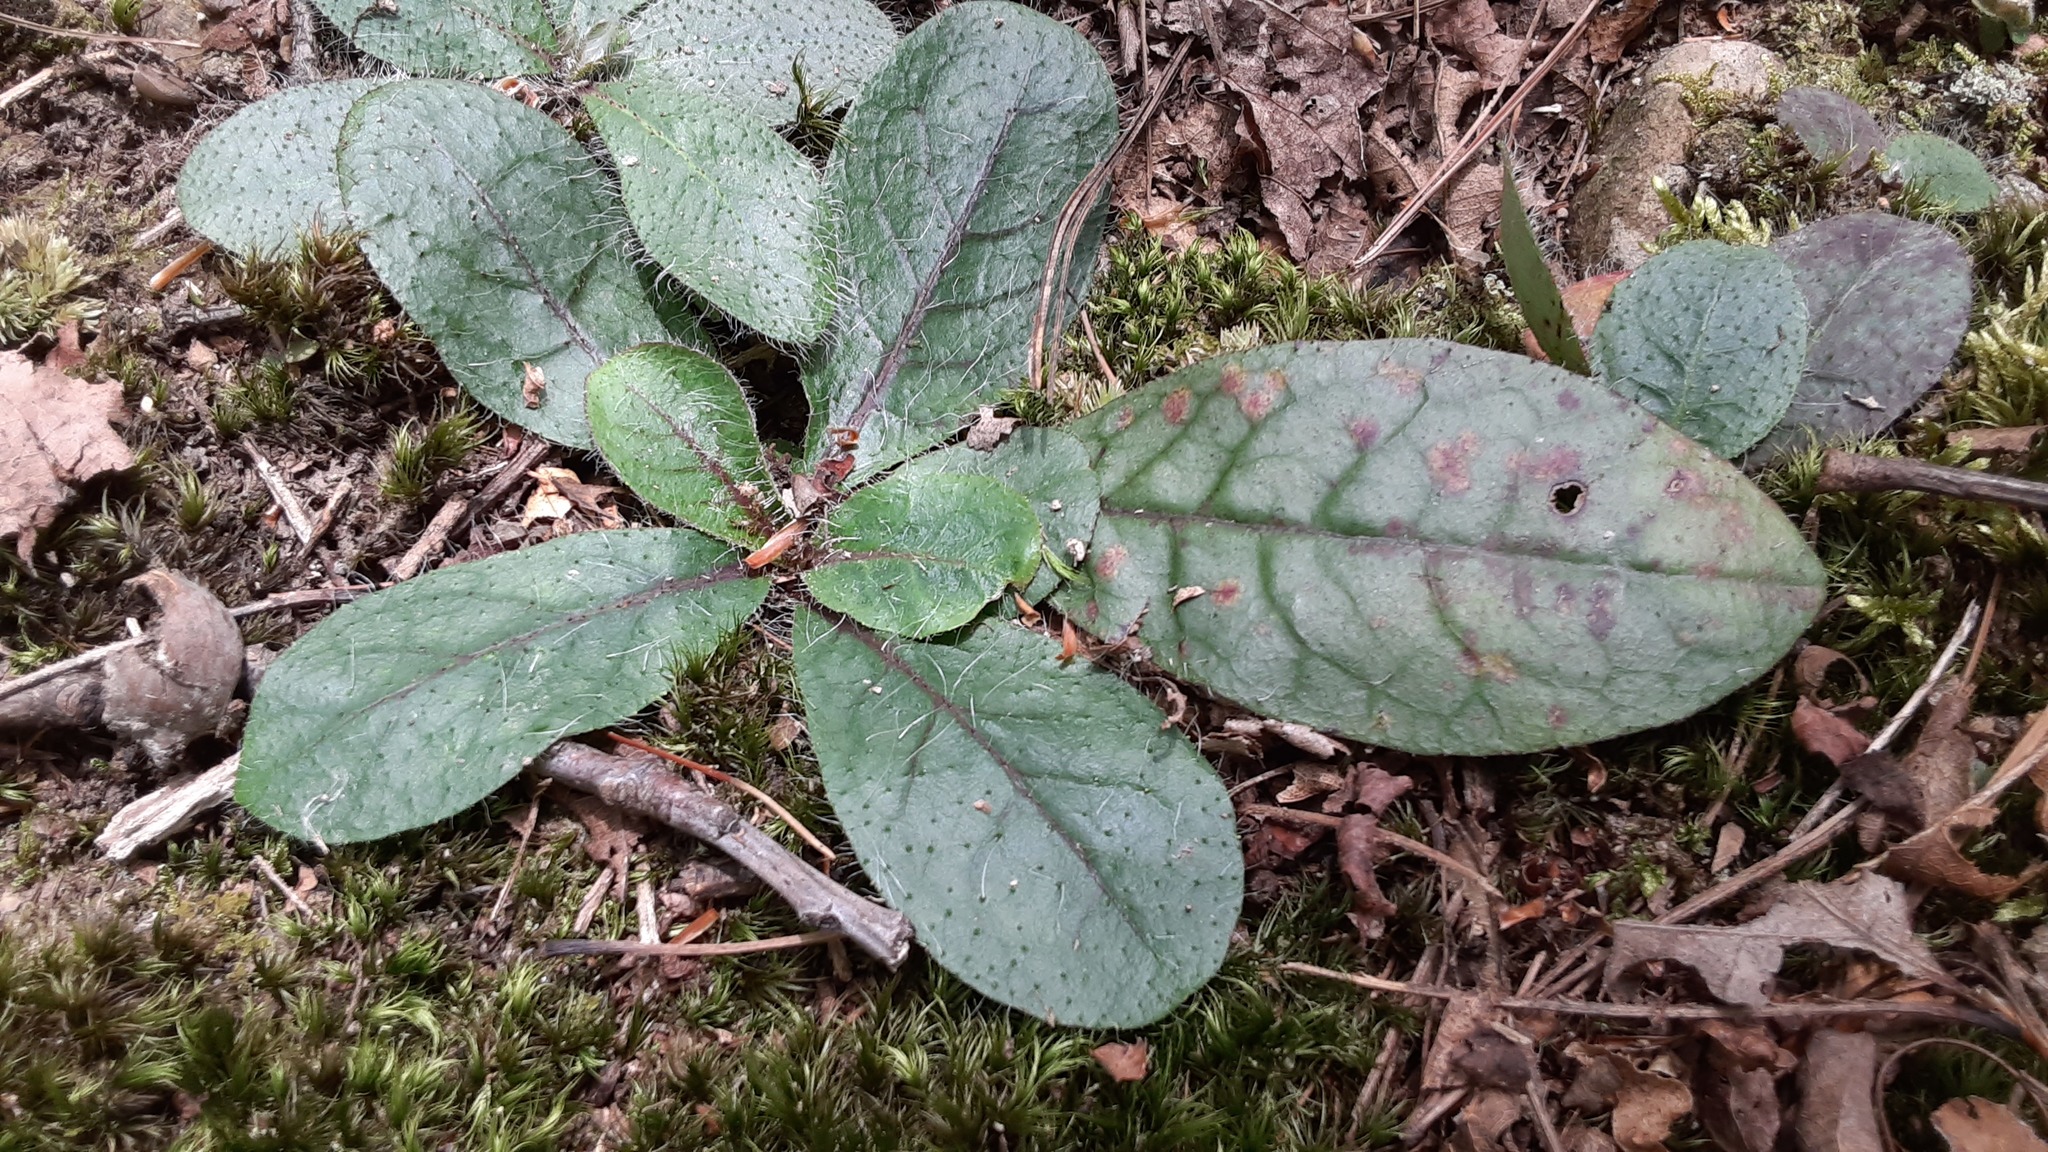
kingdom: Plantae
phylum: Tracheophyta
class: Magnoliopsida
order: Asterales
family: Asteraceae
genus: Hieracium
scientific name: Hieracium venosum
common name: Rattlesnake hawkweed
